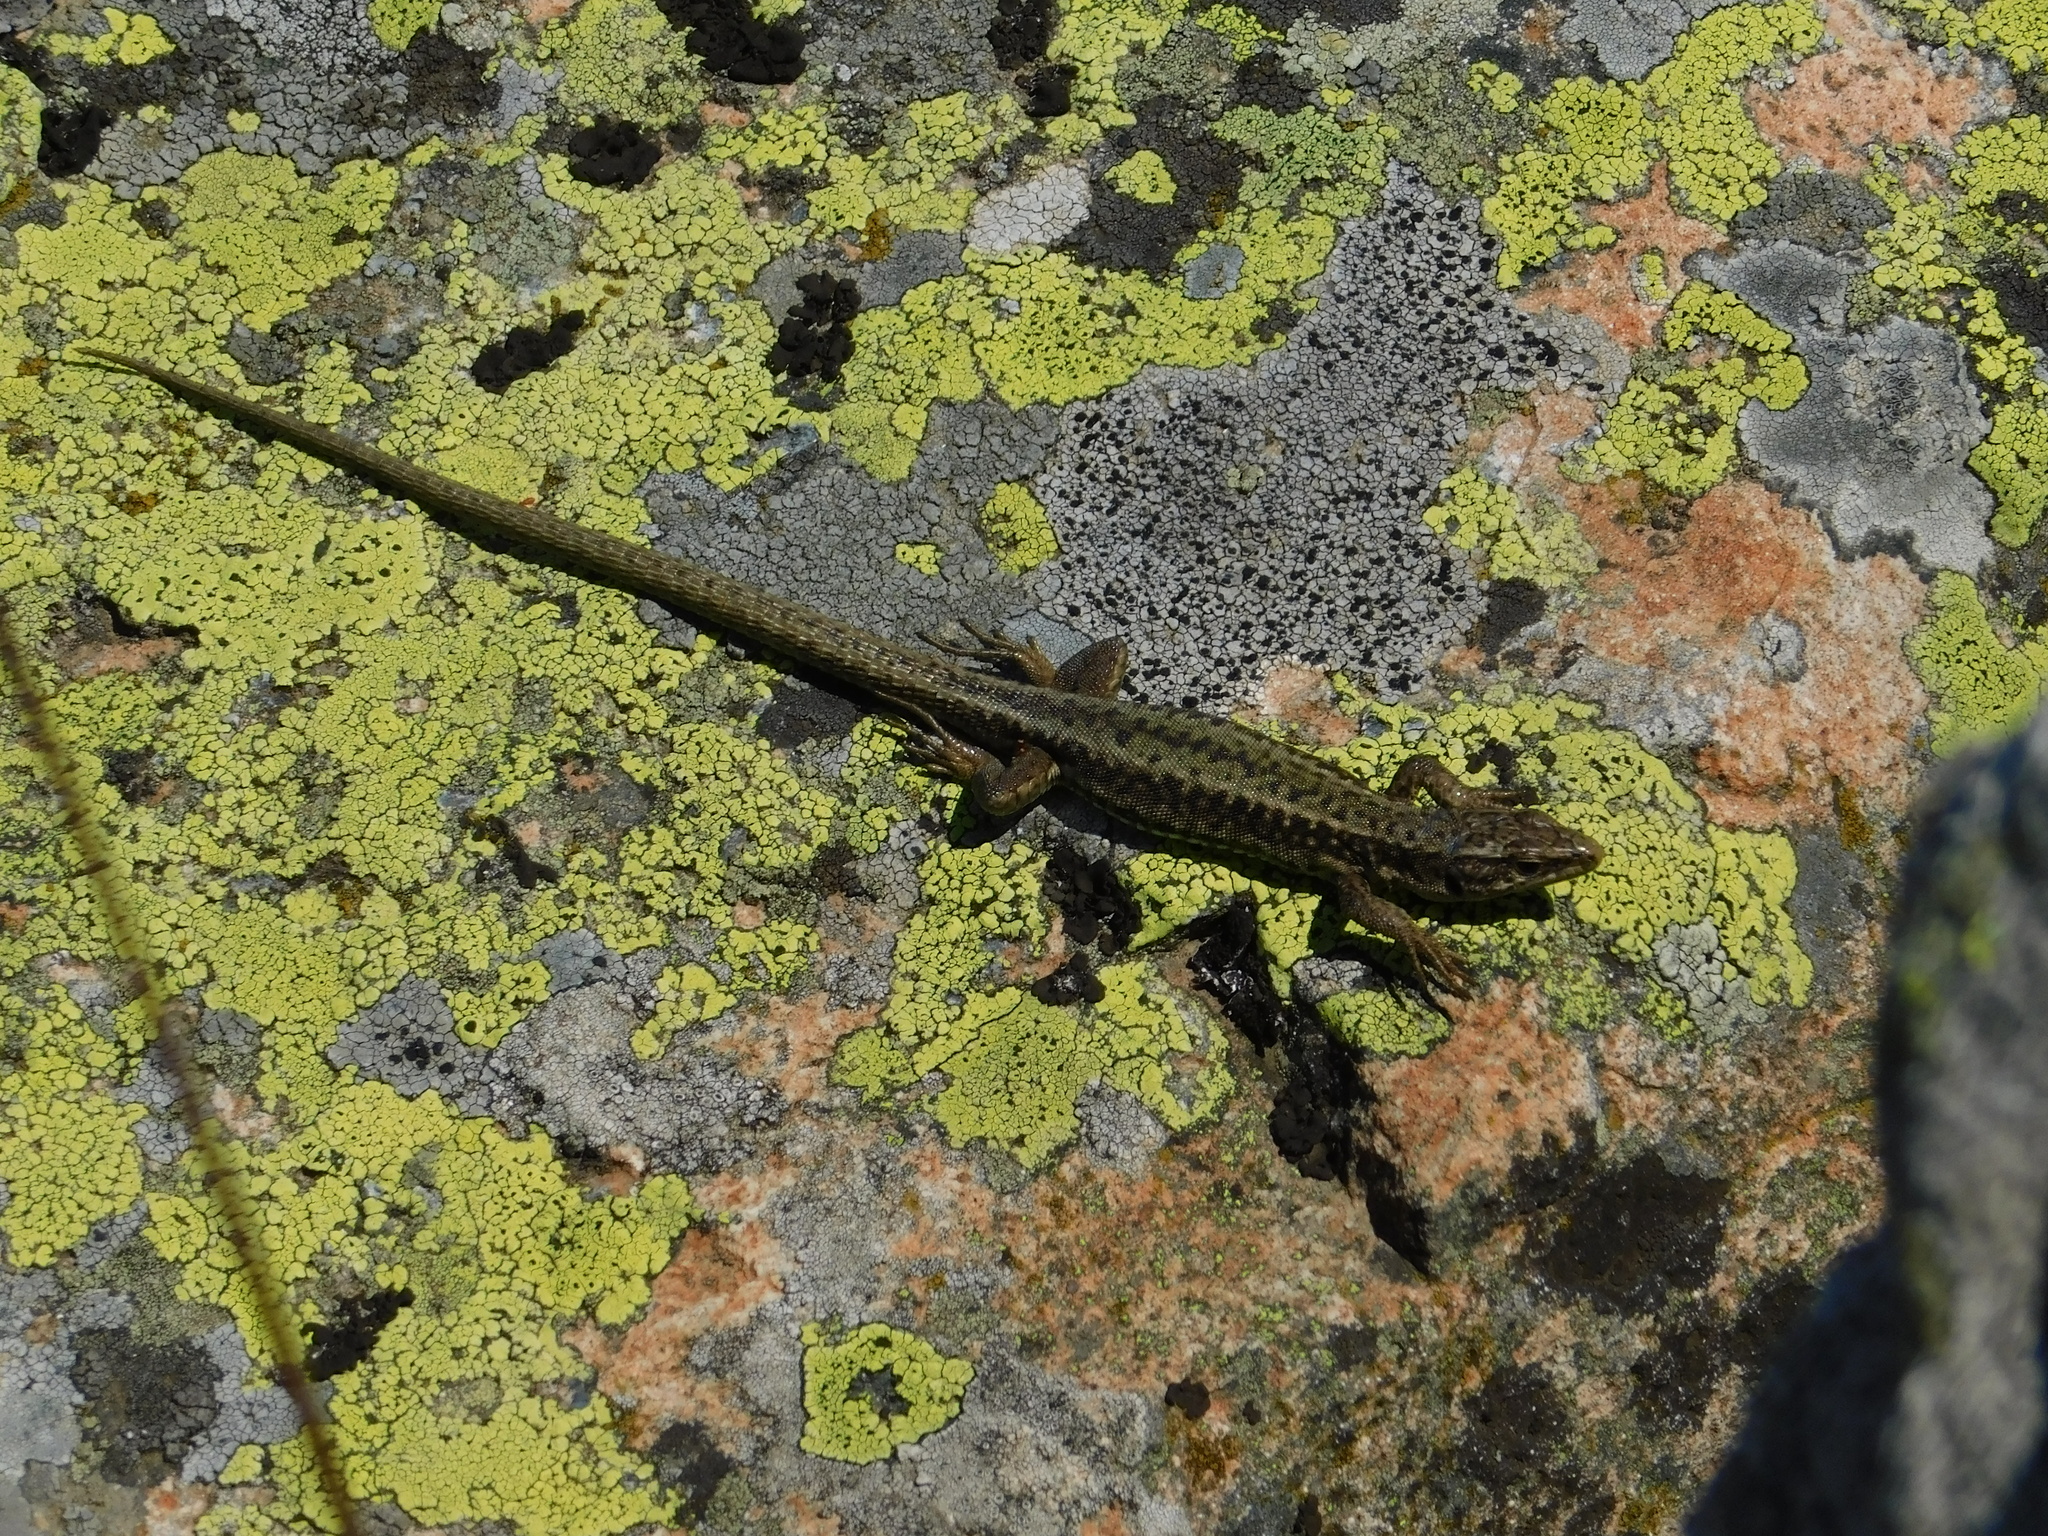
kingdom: Animalia
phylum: Chordata
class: Squamata
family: Lacertidae
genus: Darevskia
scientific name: Darevskia brauneri
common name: Brauner's rock lizard
